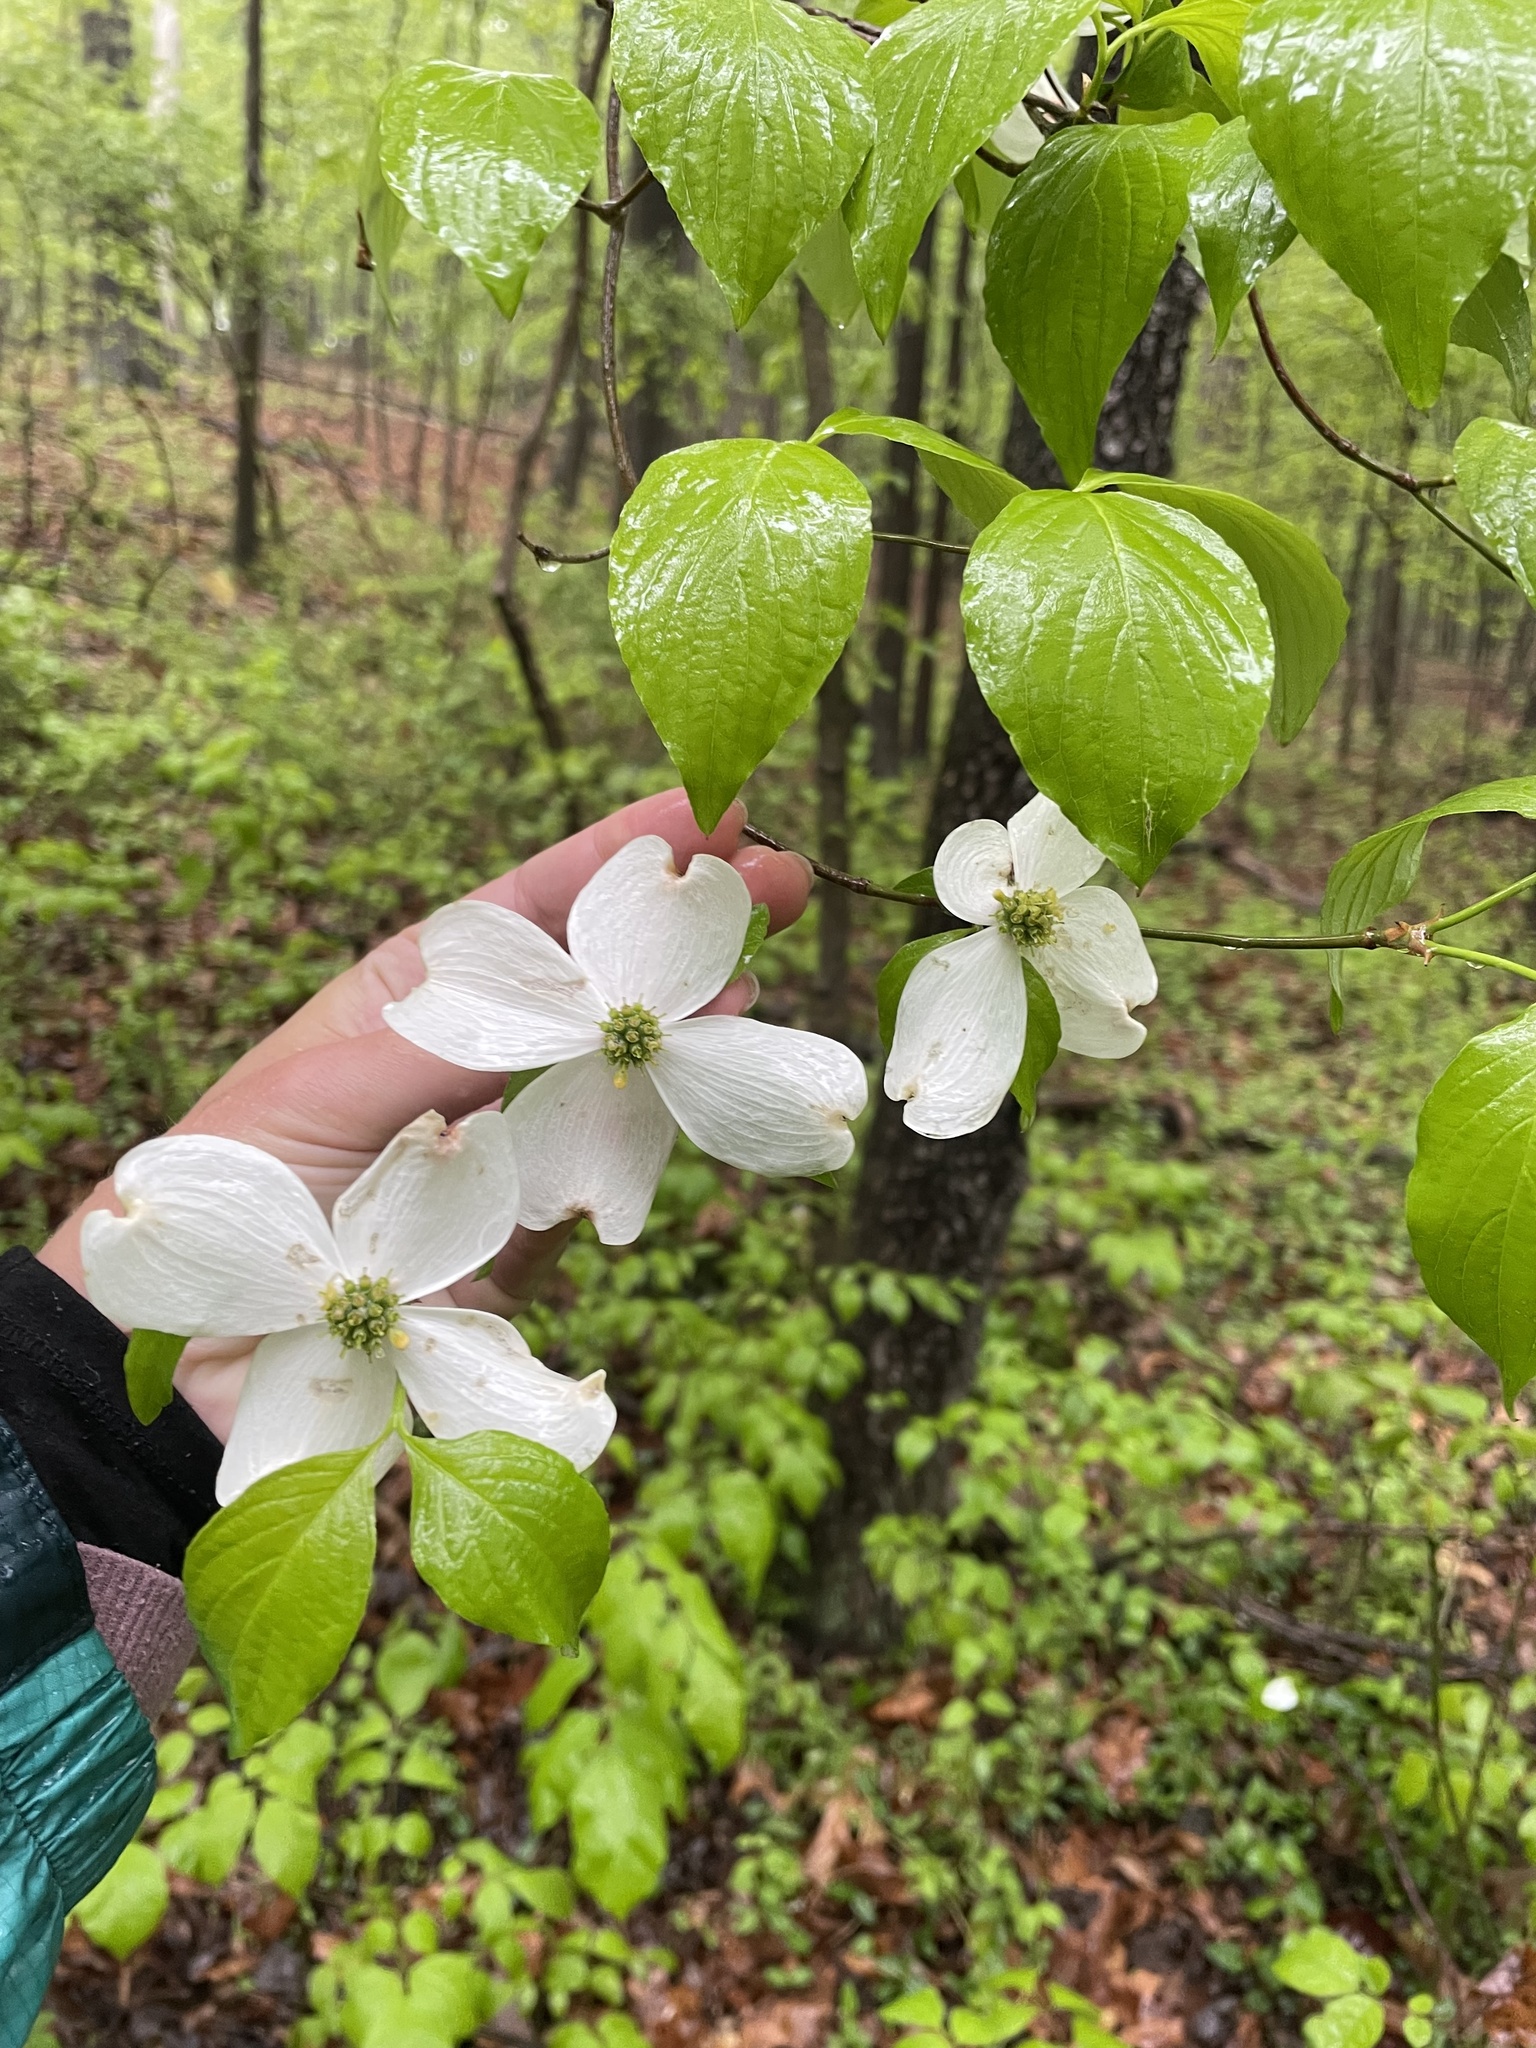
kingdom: Plantae
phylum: Tracheophyta
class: Magnoliopsida
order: Cornales
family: Cornaceae
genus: Cornus
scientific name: Cornus florida
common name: Flowering dogwood
